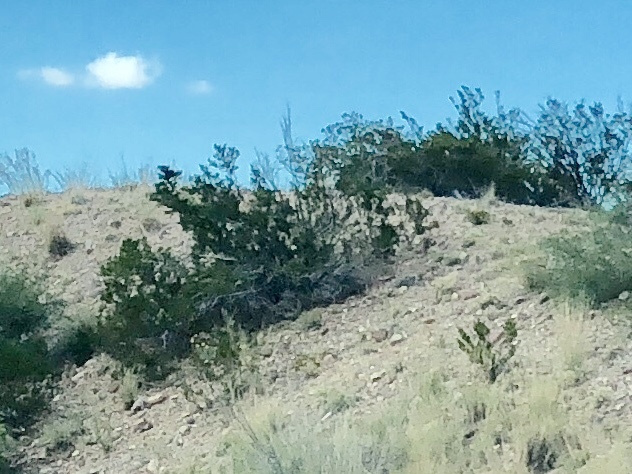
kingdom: Plantae
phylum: Tracheophyta
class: Magnoliopsida
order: Zygophyllales
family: Zygophyllaceae
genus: Larrea
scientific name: Larrea tridentata
